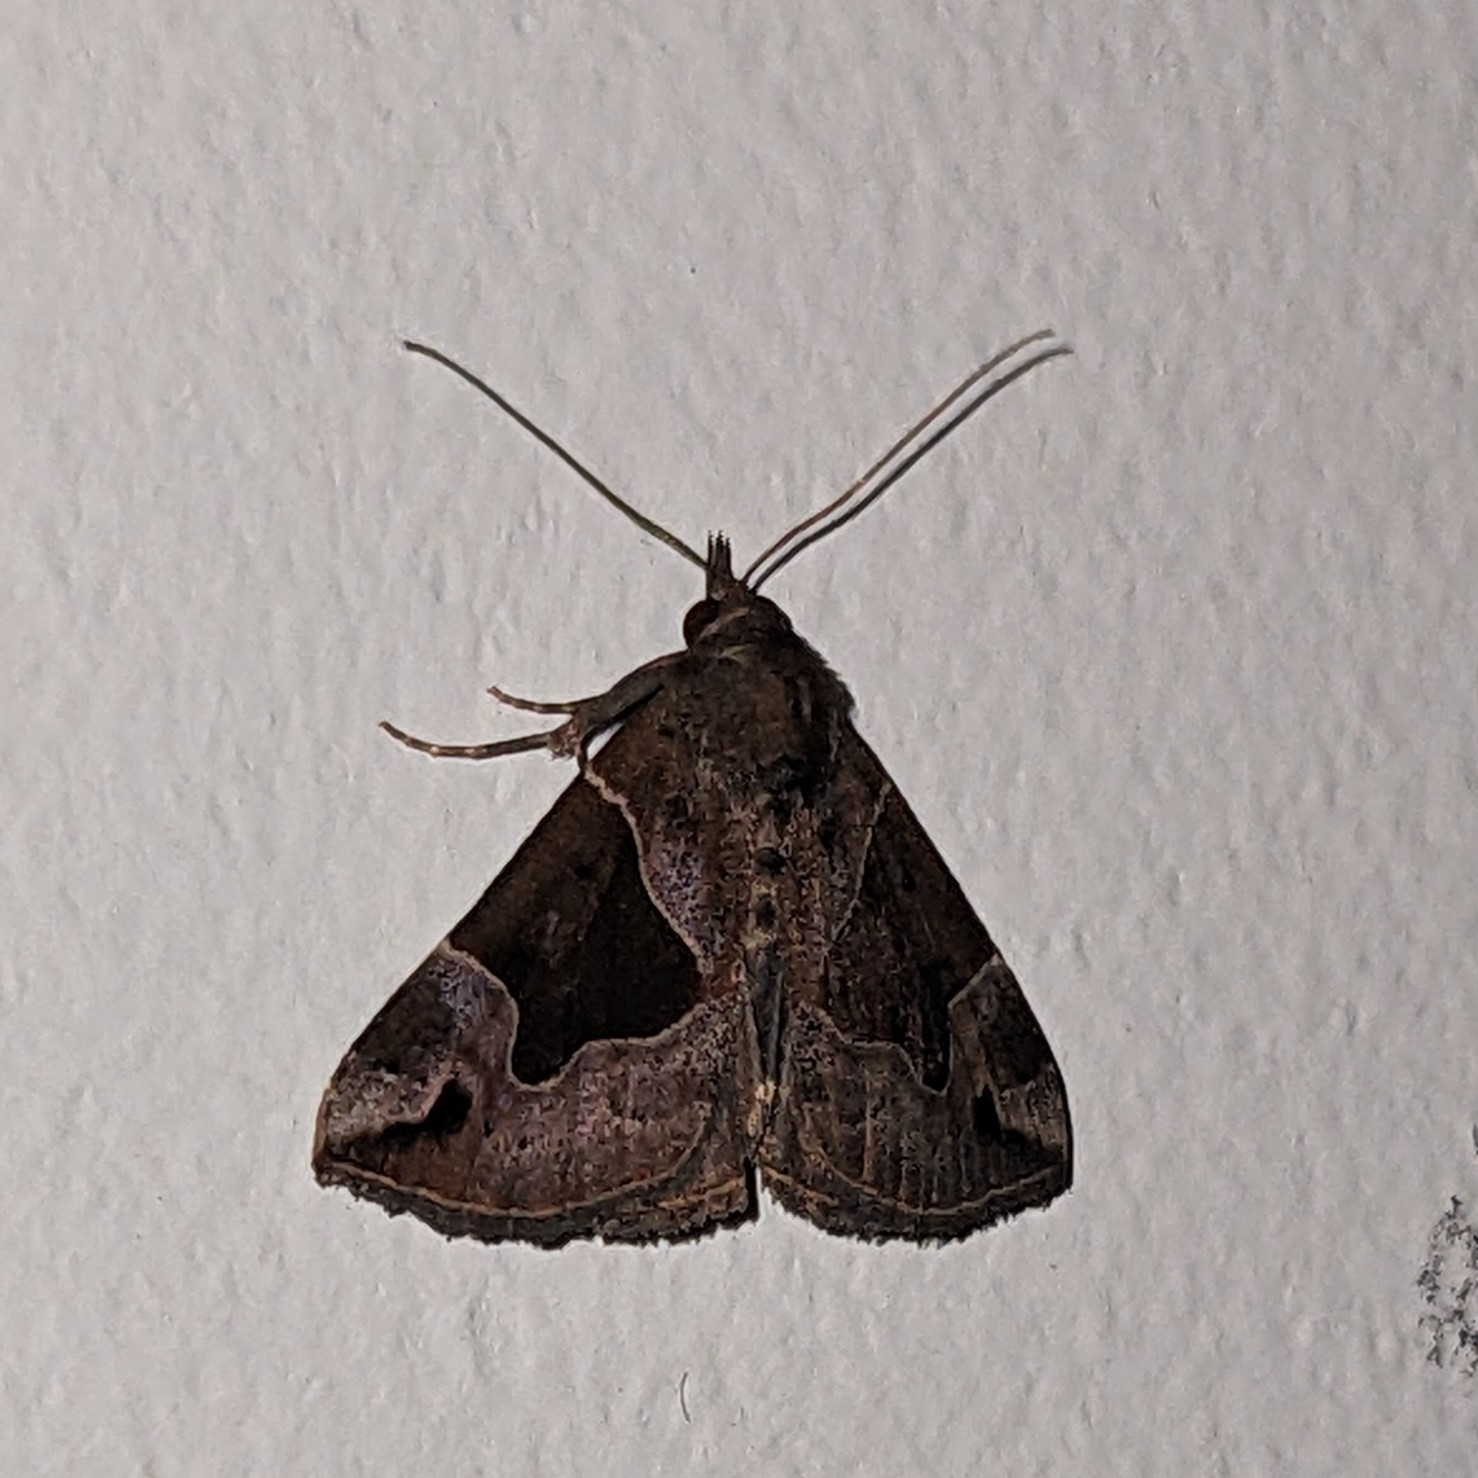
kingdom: Animalia
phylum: Arthropoda
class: Insecta
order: Lepidoptera
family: Erebidae
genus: Hypena
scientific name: Hypena manalis
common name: Flowing-line bomolocha moth
